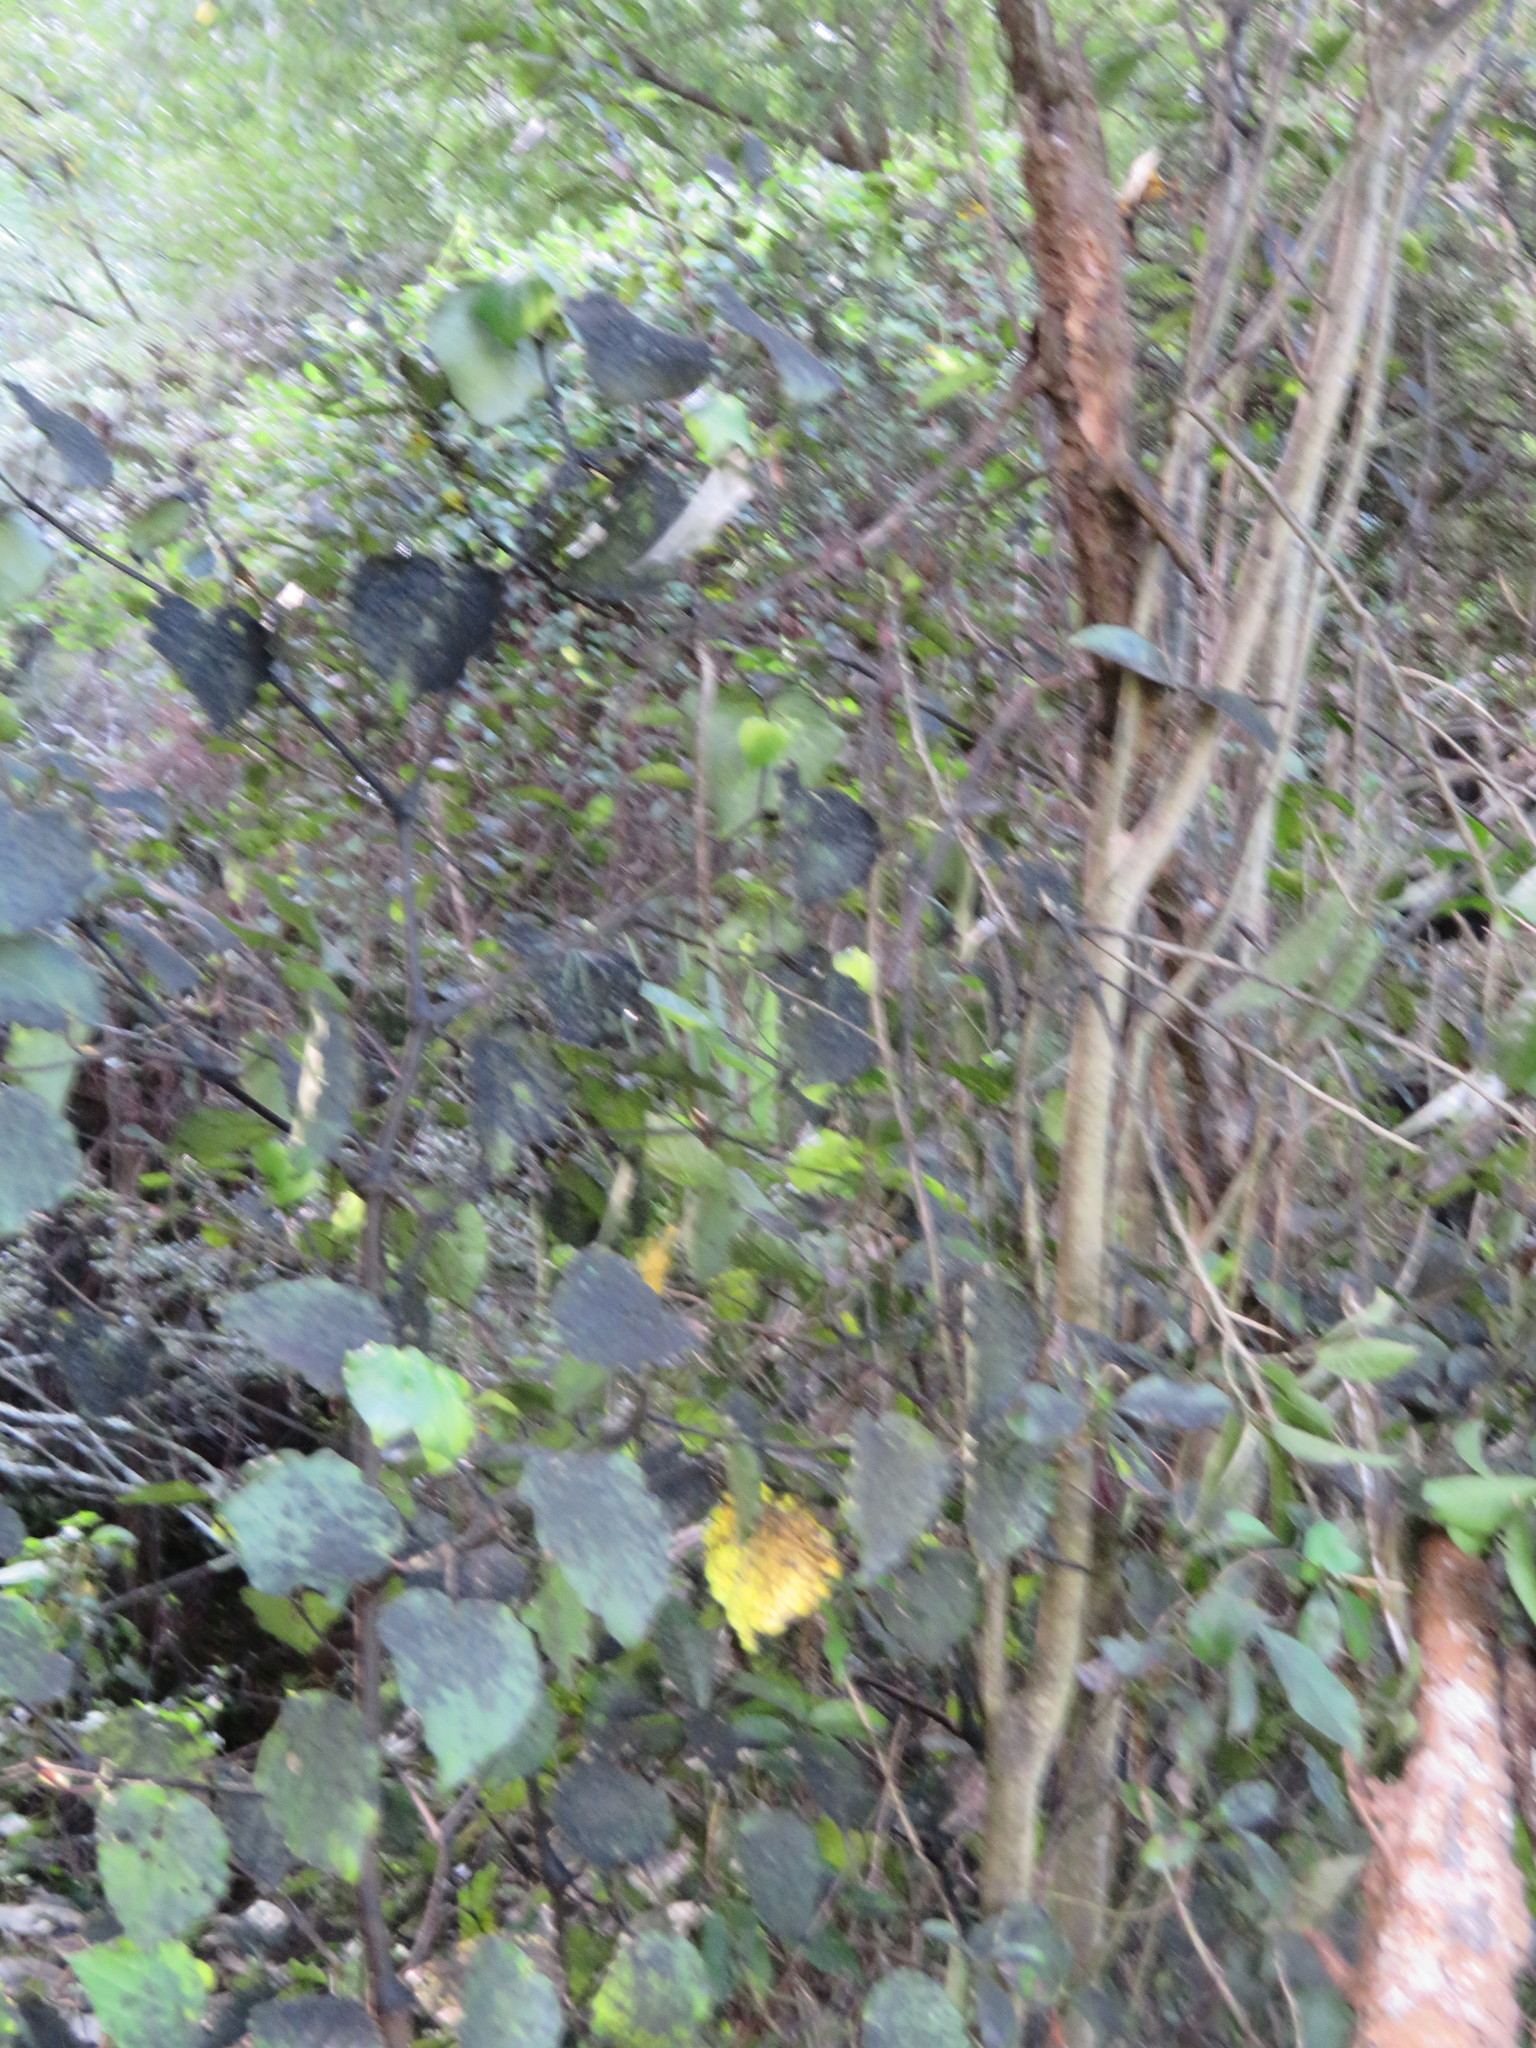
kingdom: Plantae
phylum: Tracheophyta
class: Magnoliopsida
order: Piperales
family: Piperaceae
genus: Macropiper
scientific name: Macropiper excelsum
